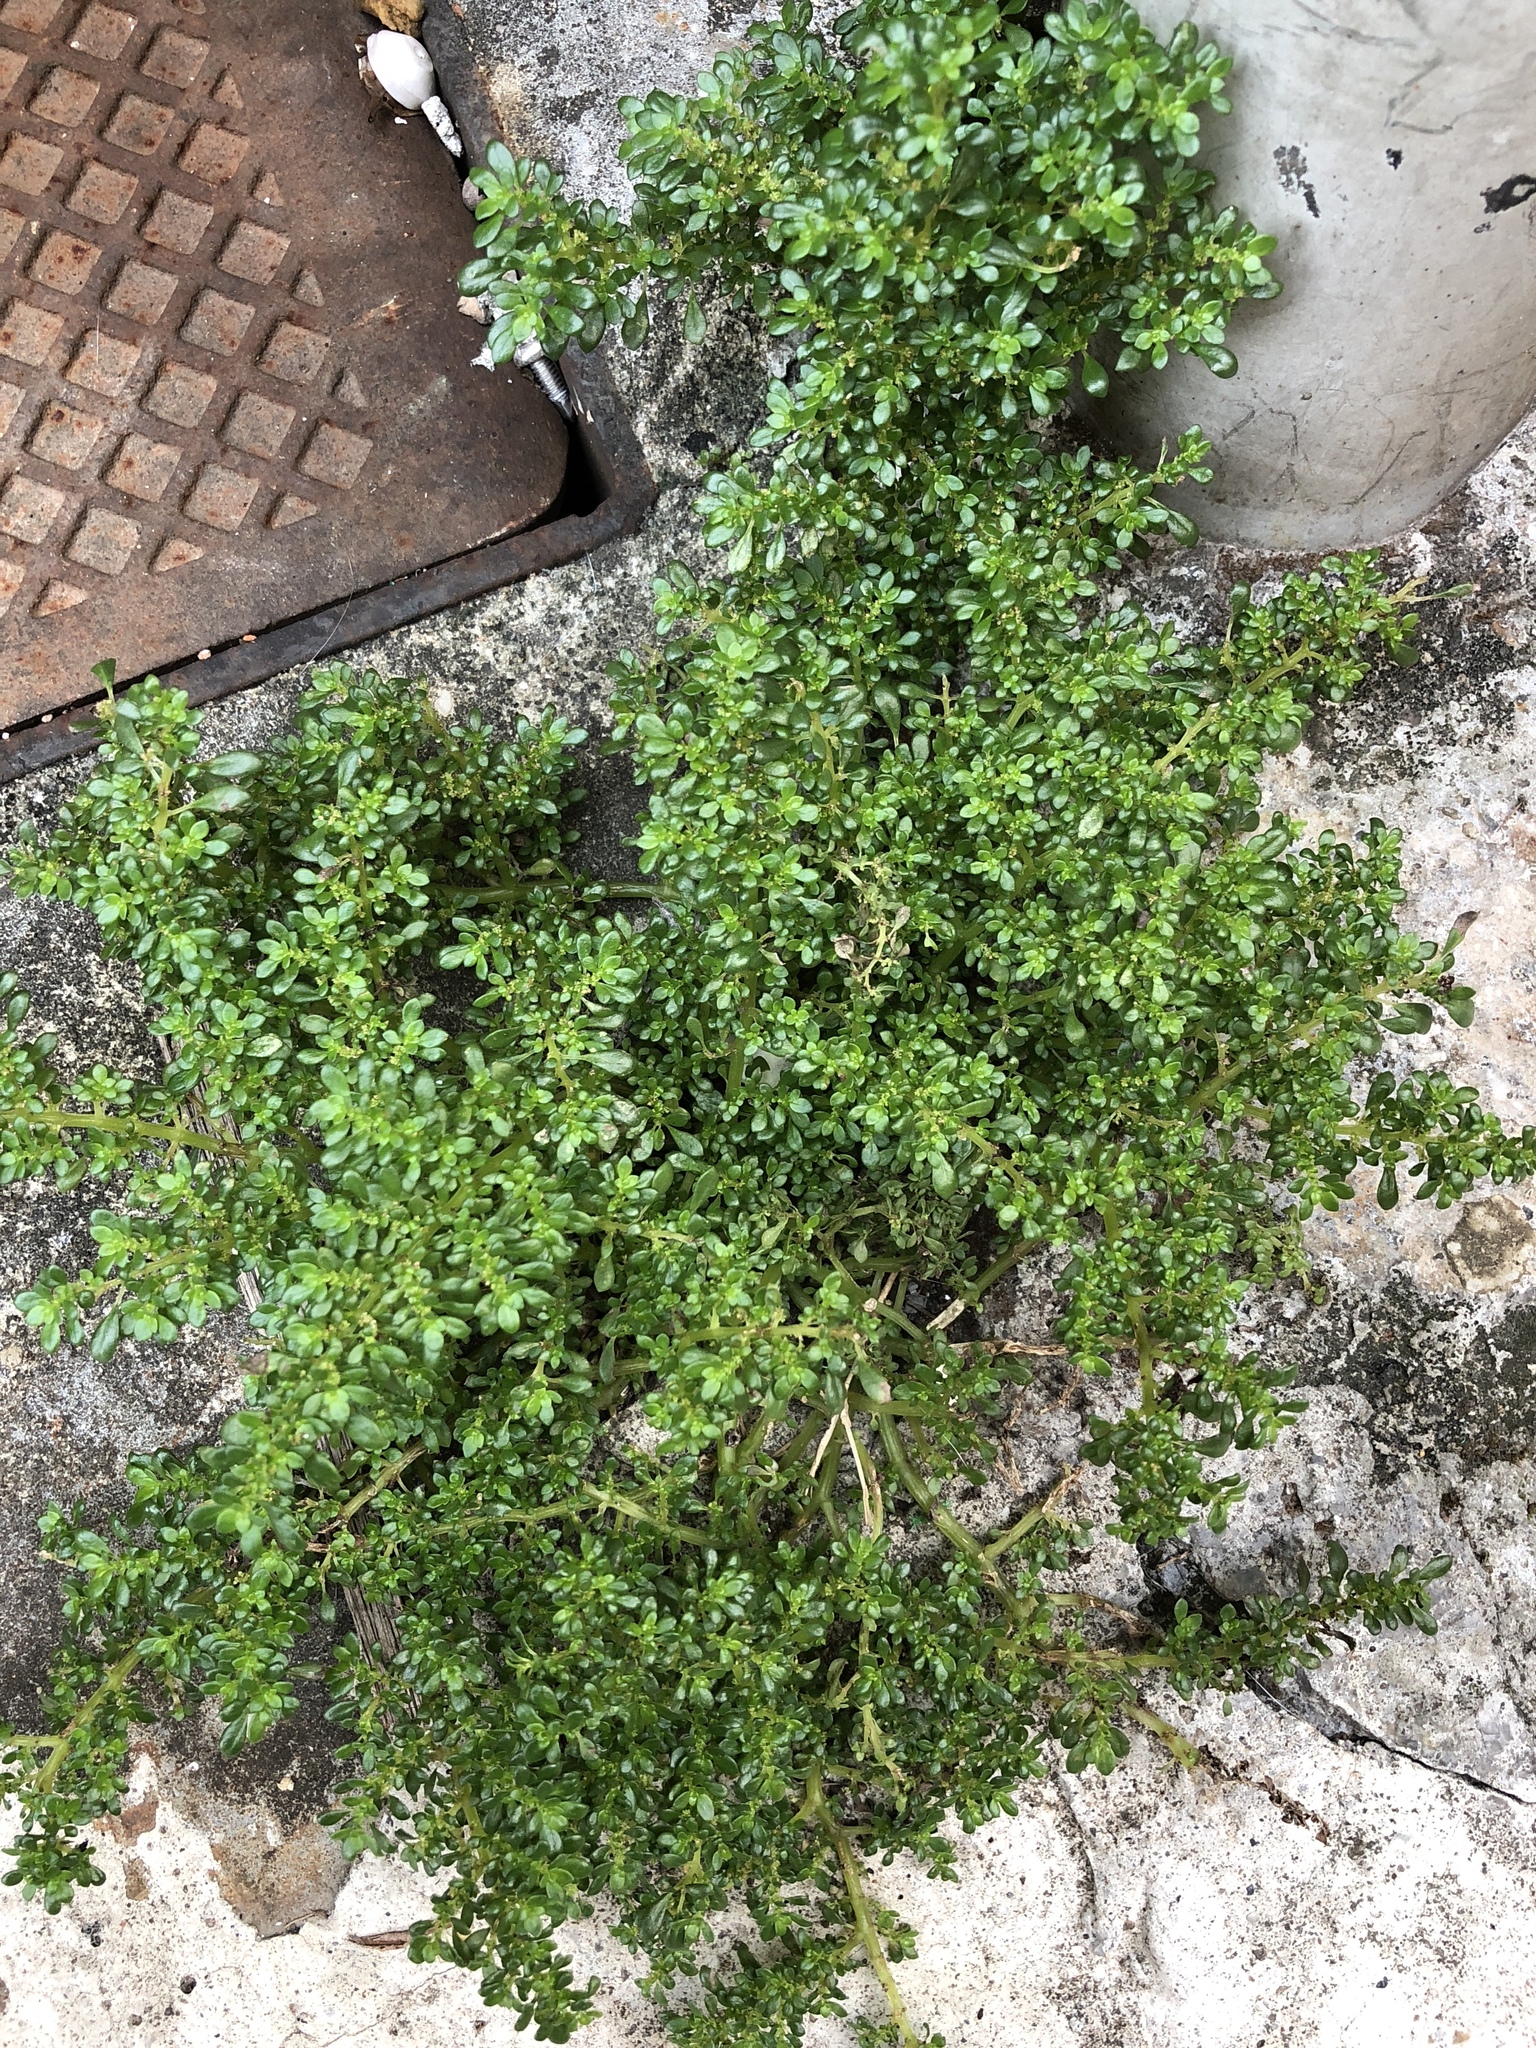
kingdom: Plantae
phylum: Tracheophyta
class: Magnoliopsida
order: Rosales
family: Urticaceae
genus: Pilea
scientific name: Pilea microphylla
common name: Artillery-plant
